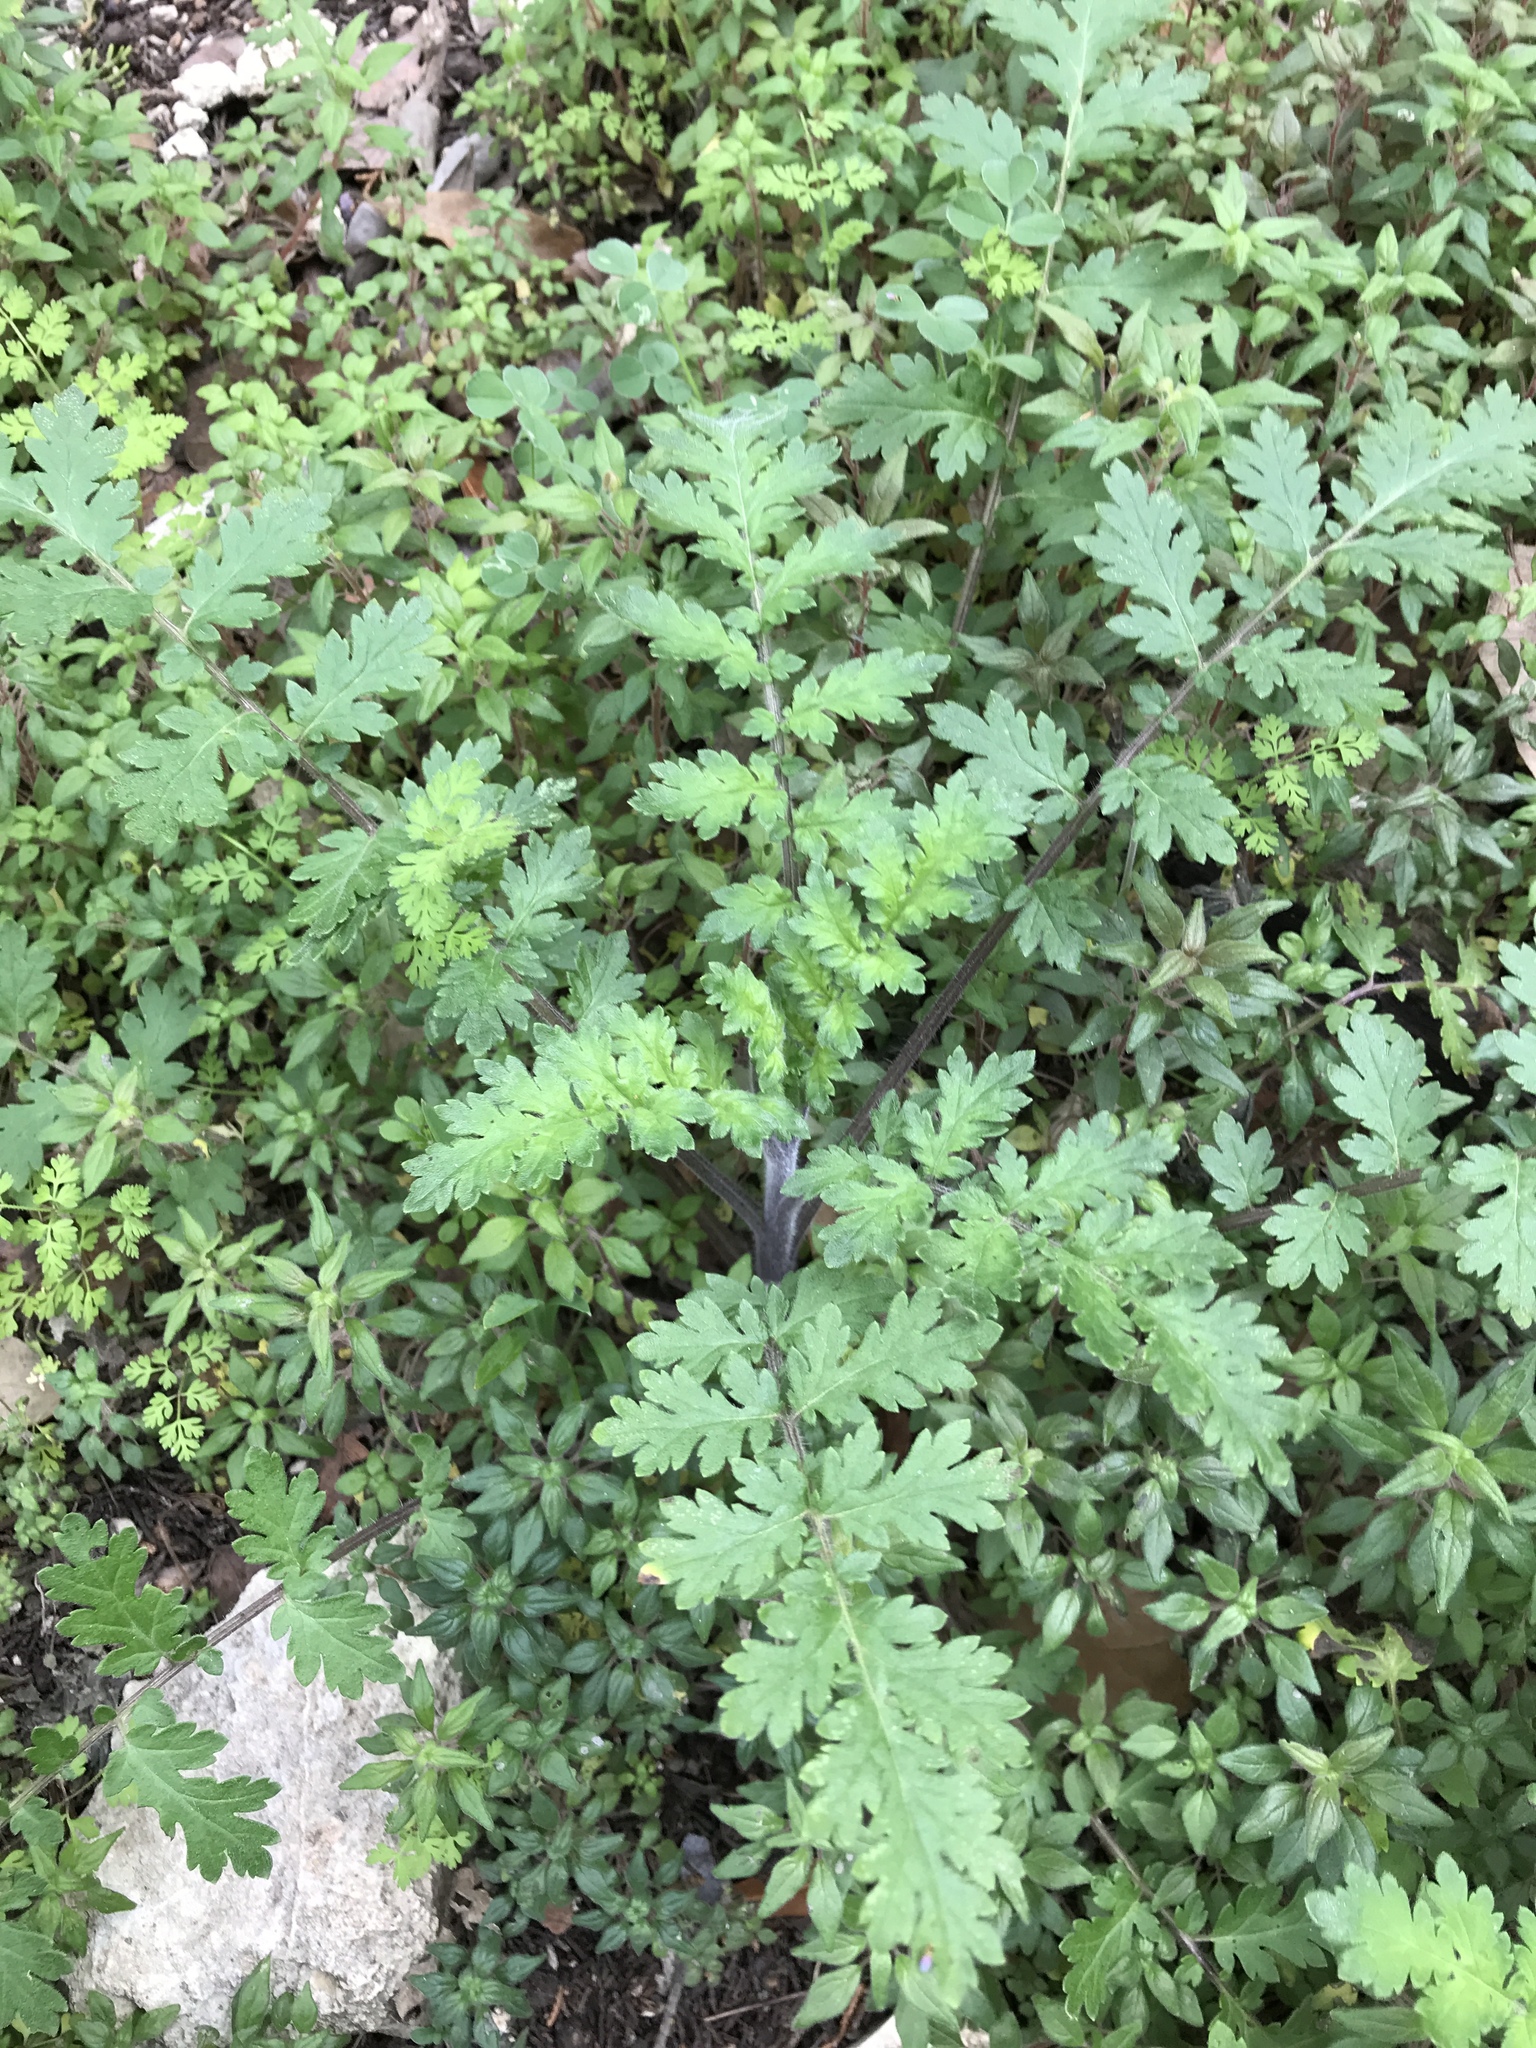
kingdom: Plantae
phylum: Tracheophyta
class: Magnoliopsida
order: Boraginales
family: Hydrophyllaceae
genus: Phacelia
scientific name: Phacelia congesta
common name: Blue curls
